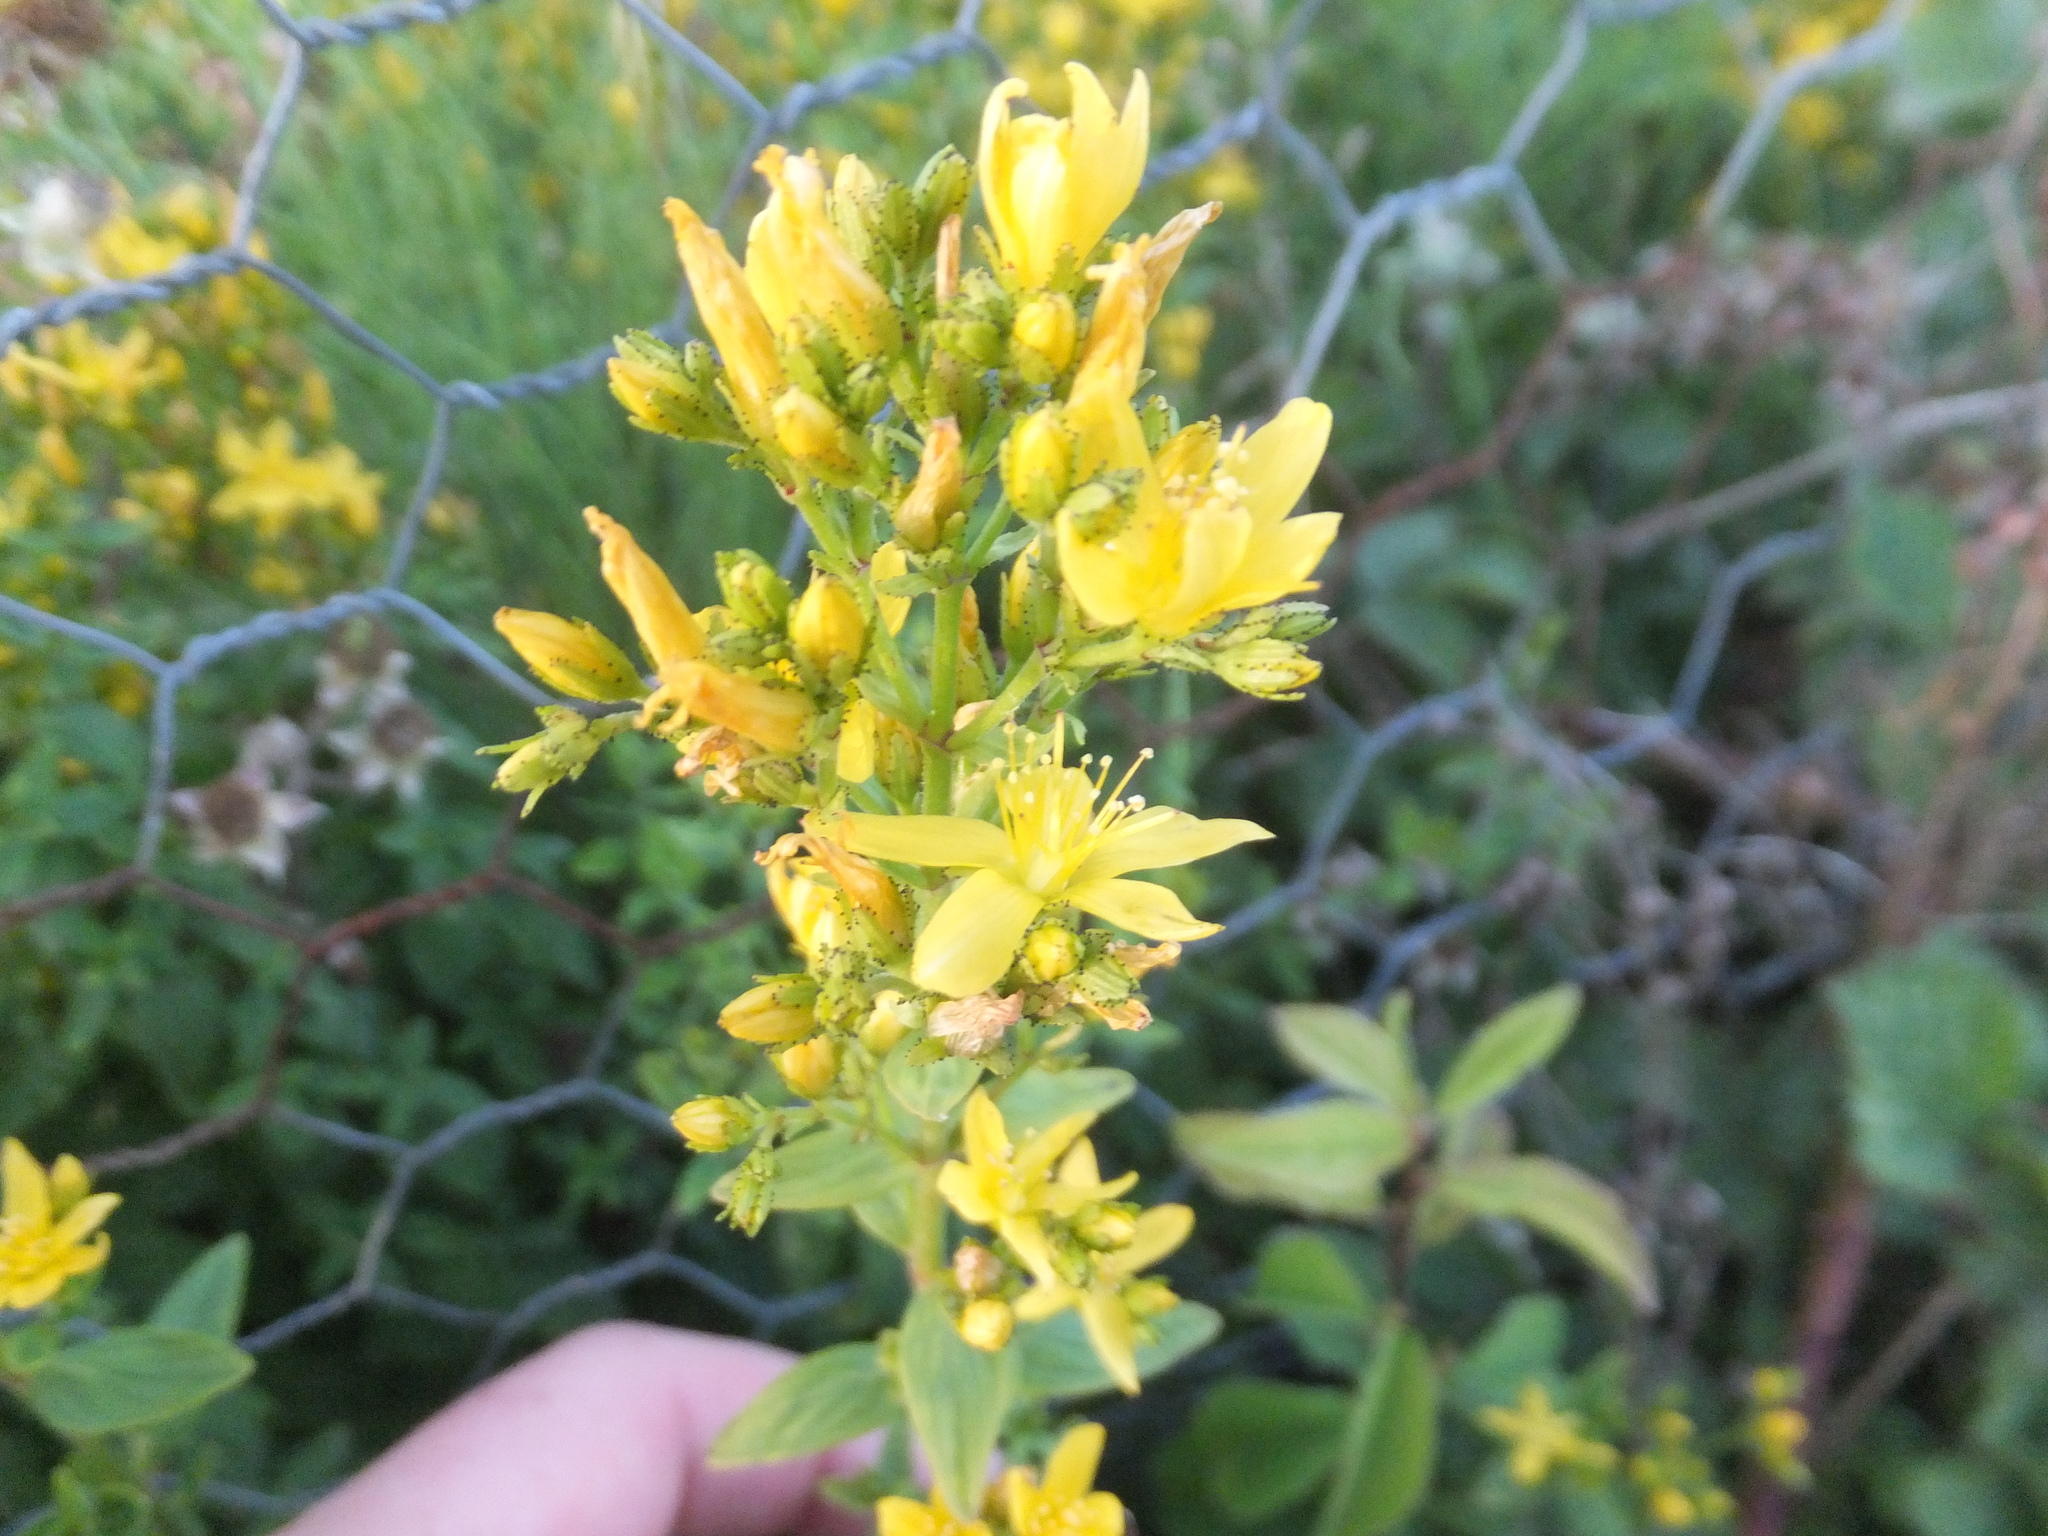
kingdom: Plantae
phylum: Tracheophyta
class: Magnoliopsida
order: Malpighiales
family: Hypericaceae
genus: Hypericum
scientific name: Hypericum hirsutum
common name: Hairy st. john's-wort
